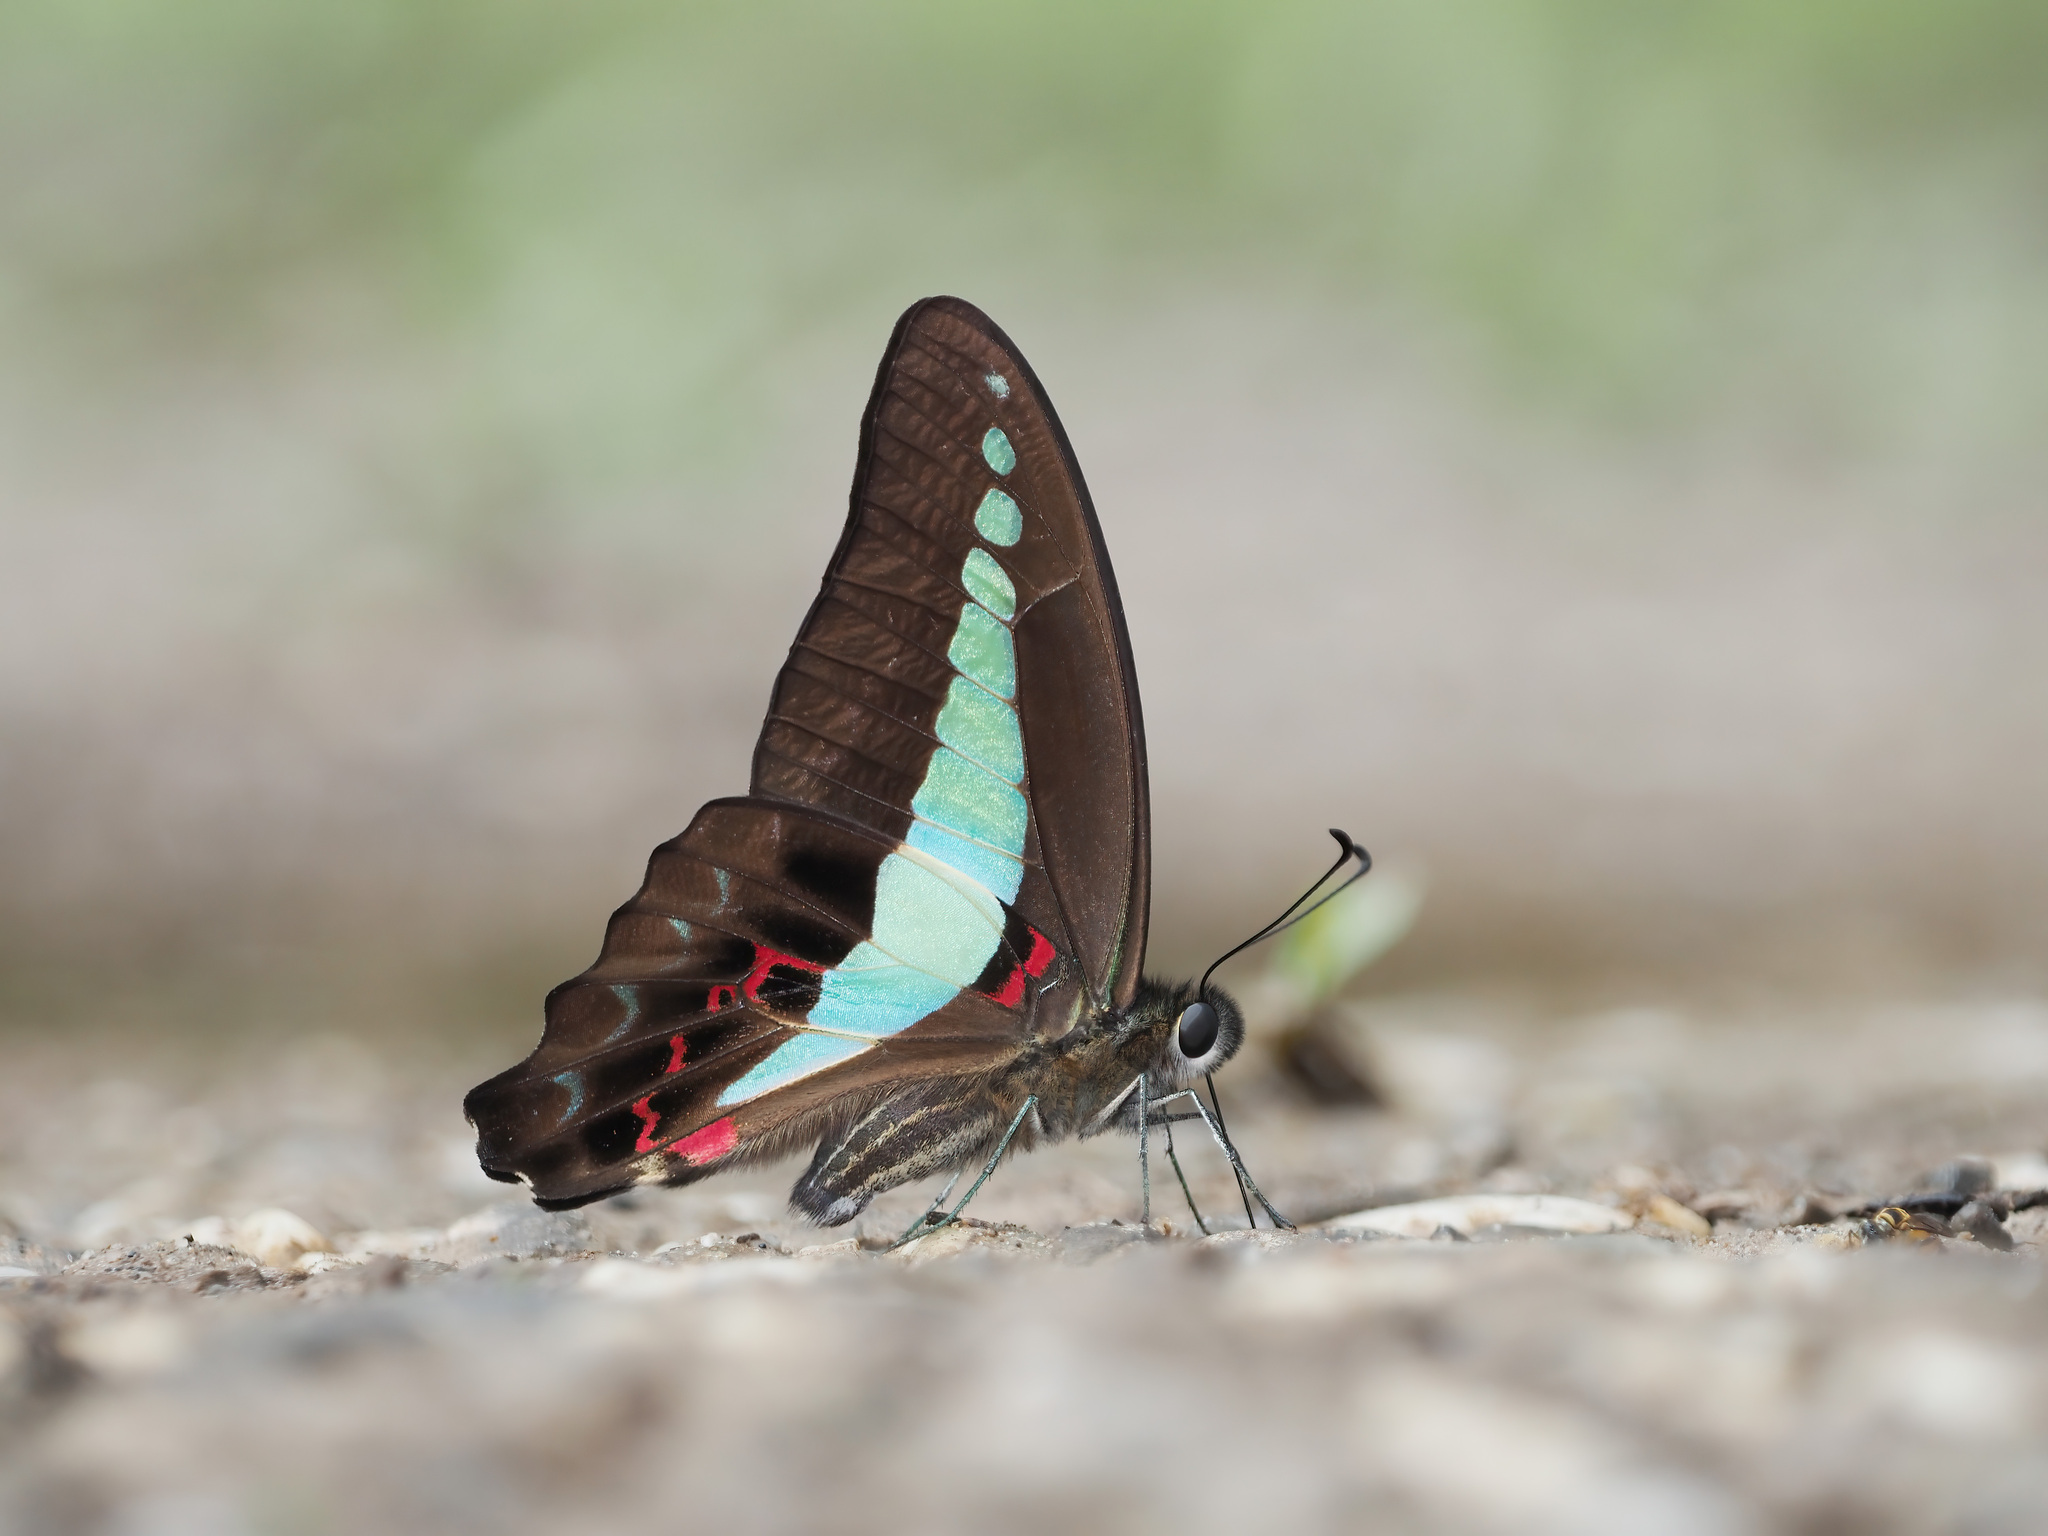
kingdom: Fungi
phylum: Ascomycota
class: Sordariomycetes
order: Microascales
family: Microascaceae
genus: Graphium
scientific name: Graphium sarpedon
